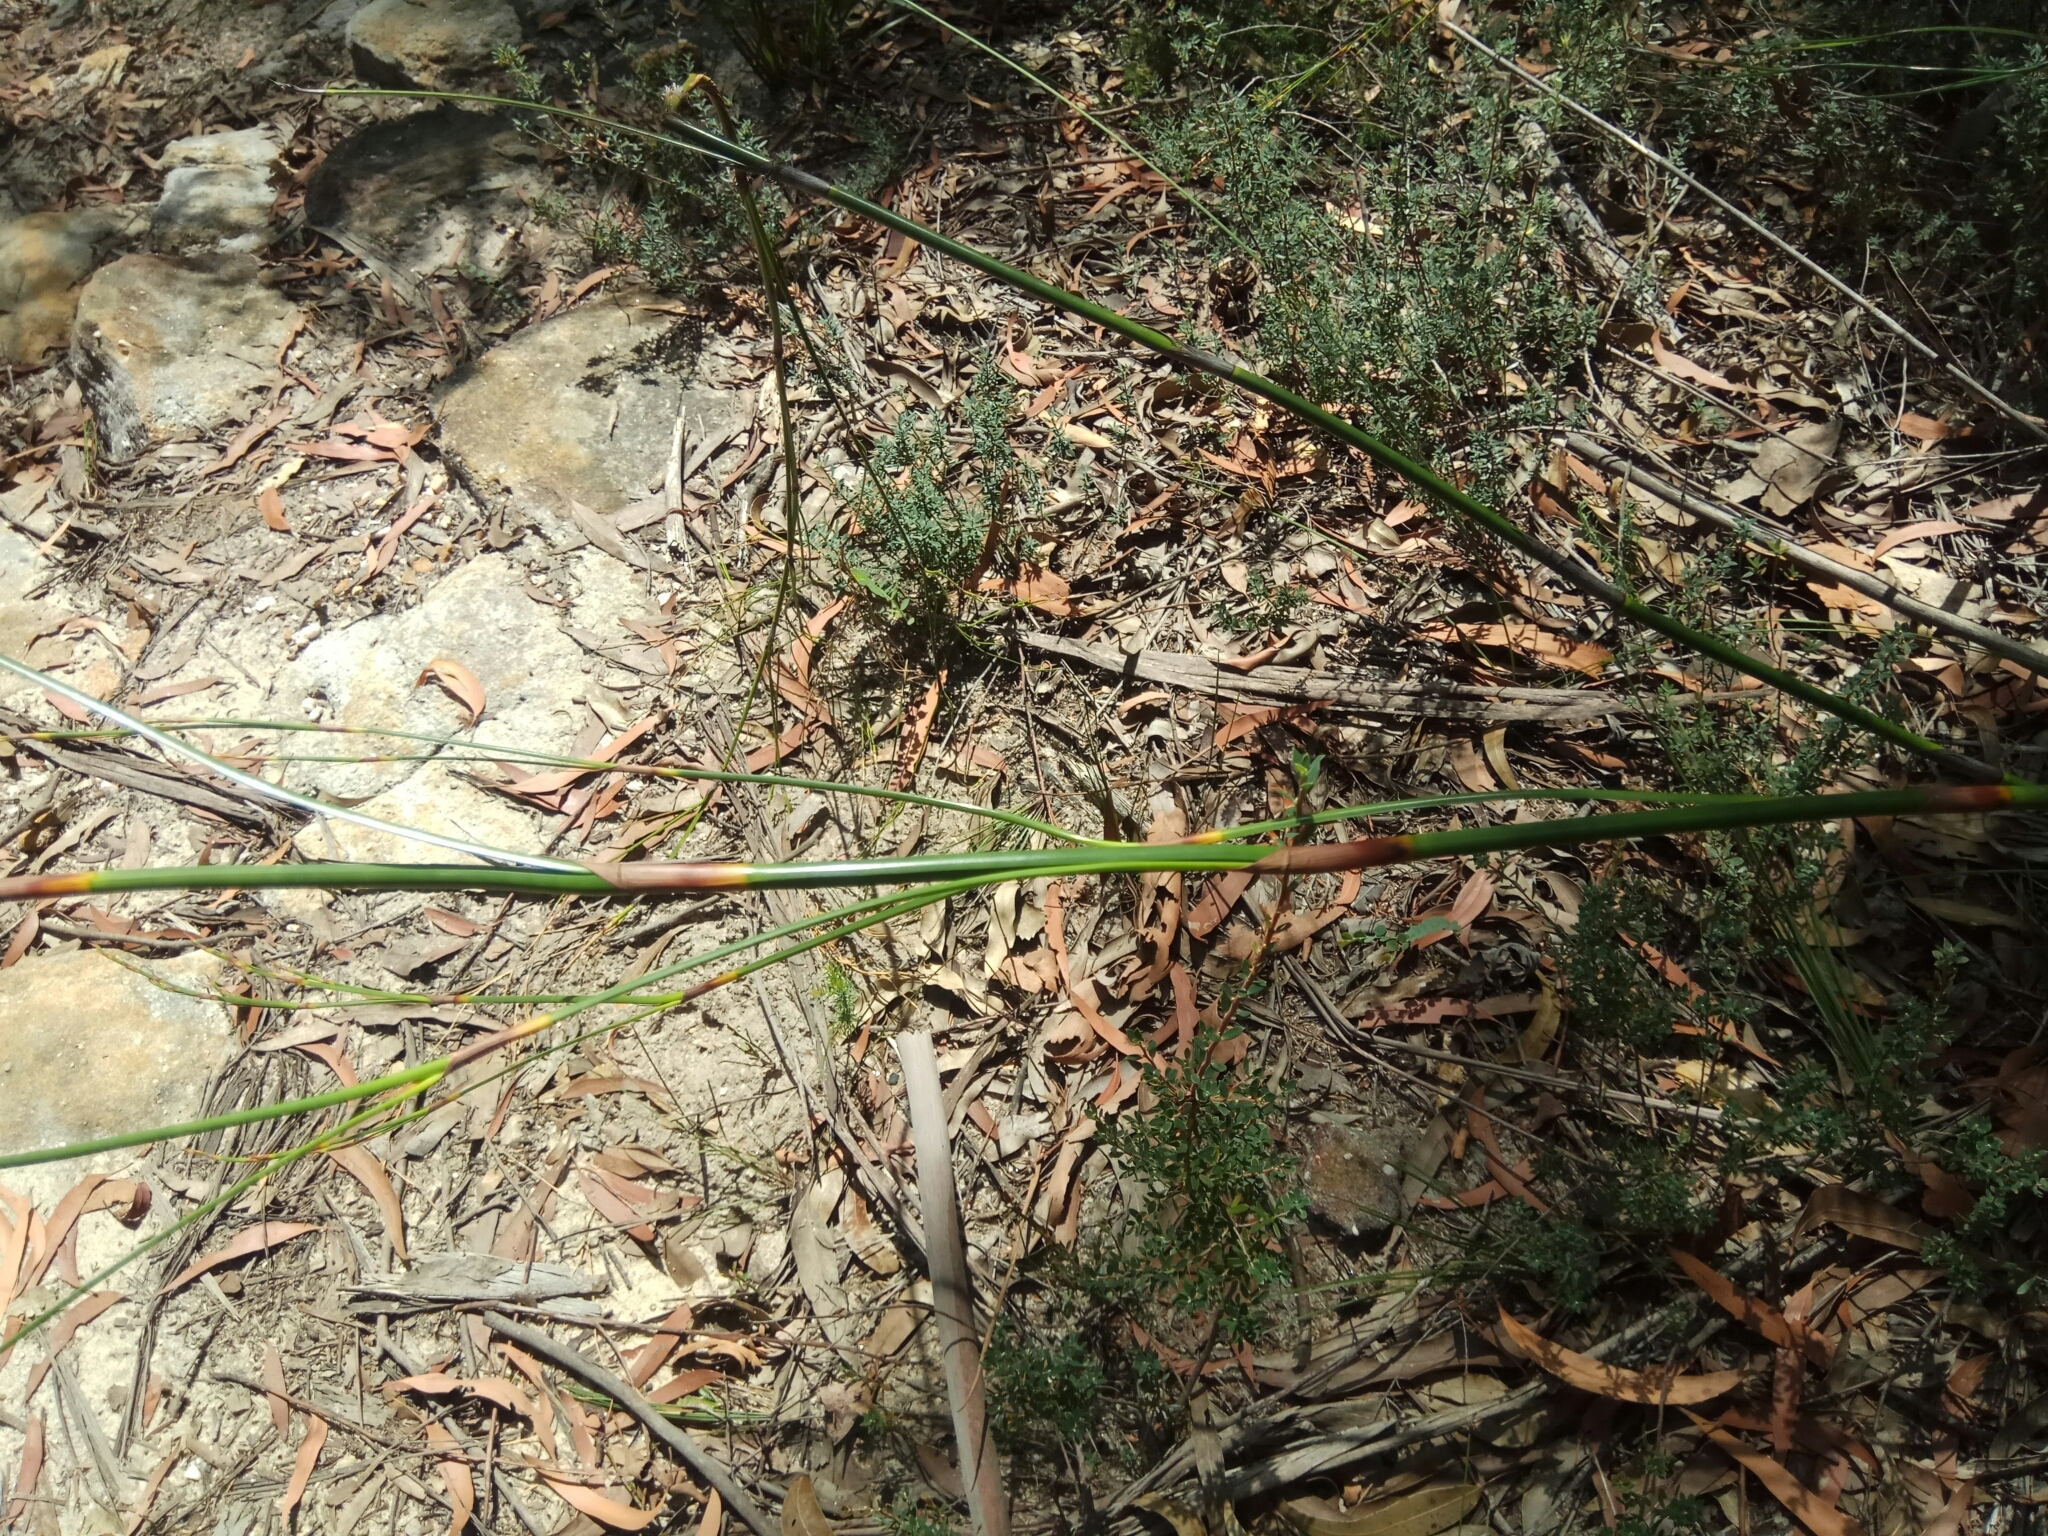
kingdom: Plantae
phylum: Tracheophyta
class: Liliopsida
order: Poales
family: Cyperaceae
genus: Caustis
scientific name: Caustis pentandra
